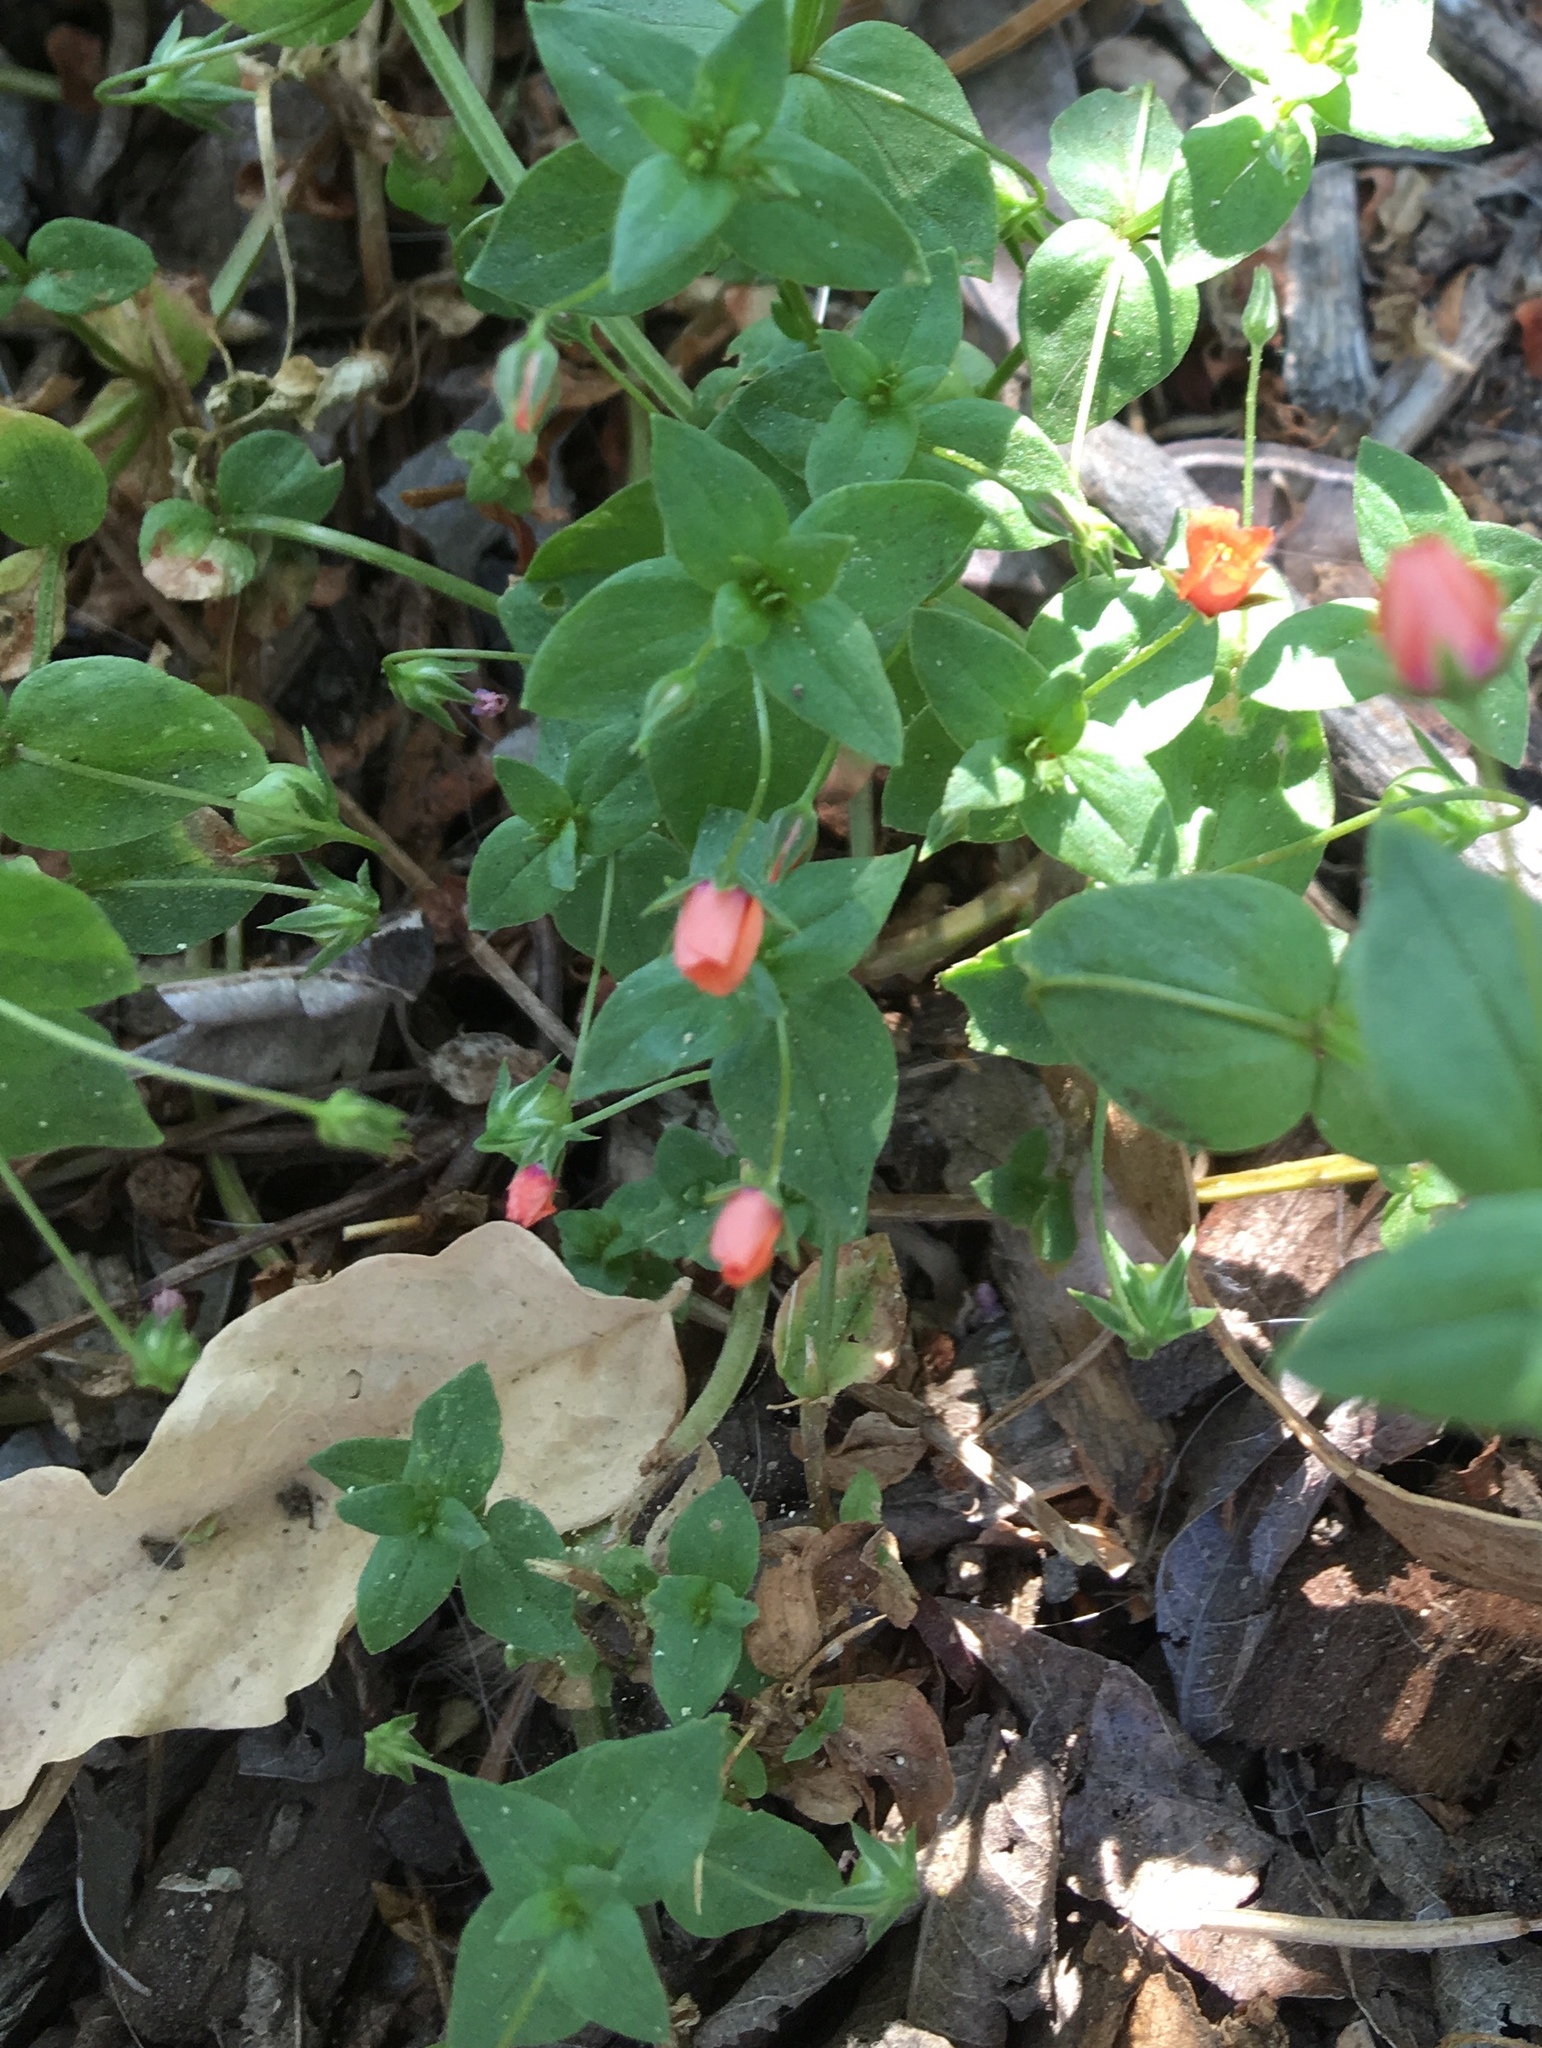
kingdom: Plantae
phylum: Tracheophyta
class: Magnoliopsida
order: Ericales
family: Primulaceae
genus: Lysimachia
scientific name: Lysimachia arvensis
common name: Scarlet pimpernel
